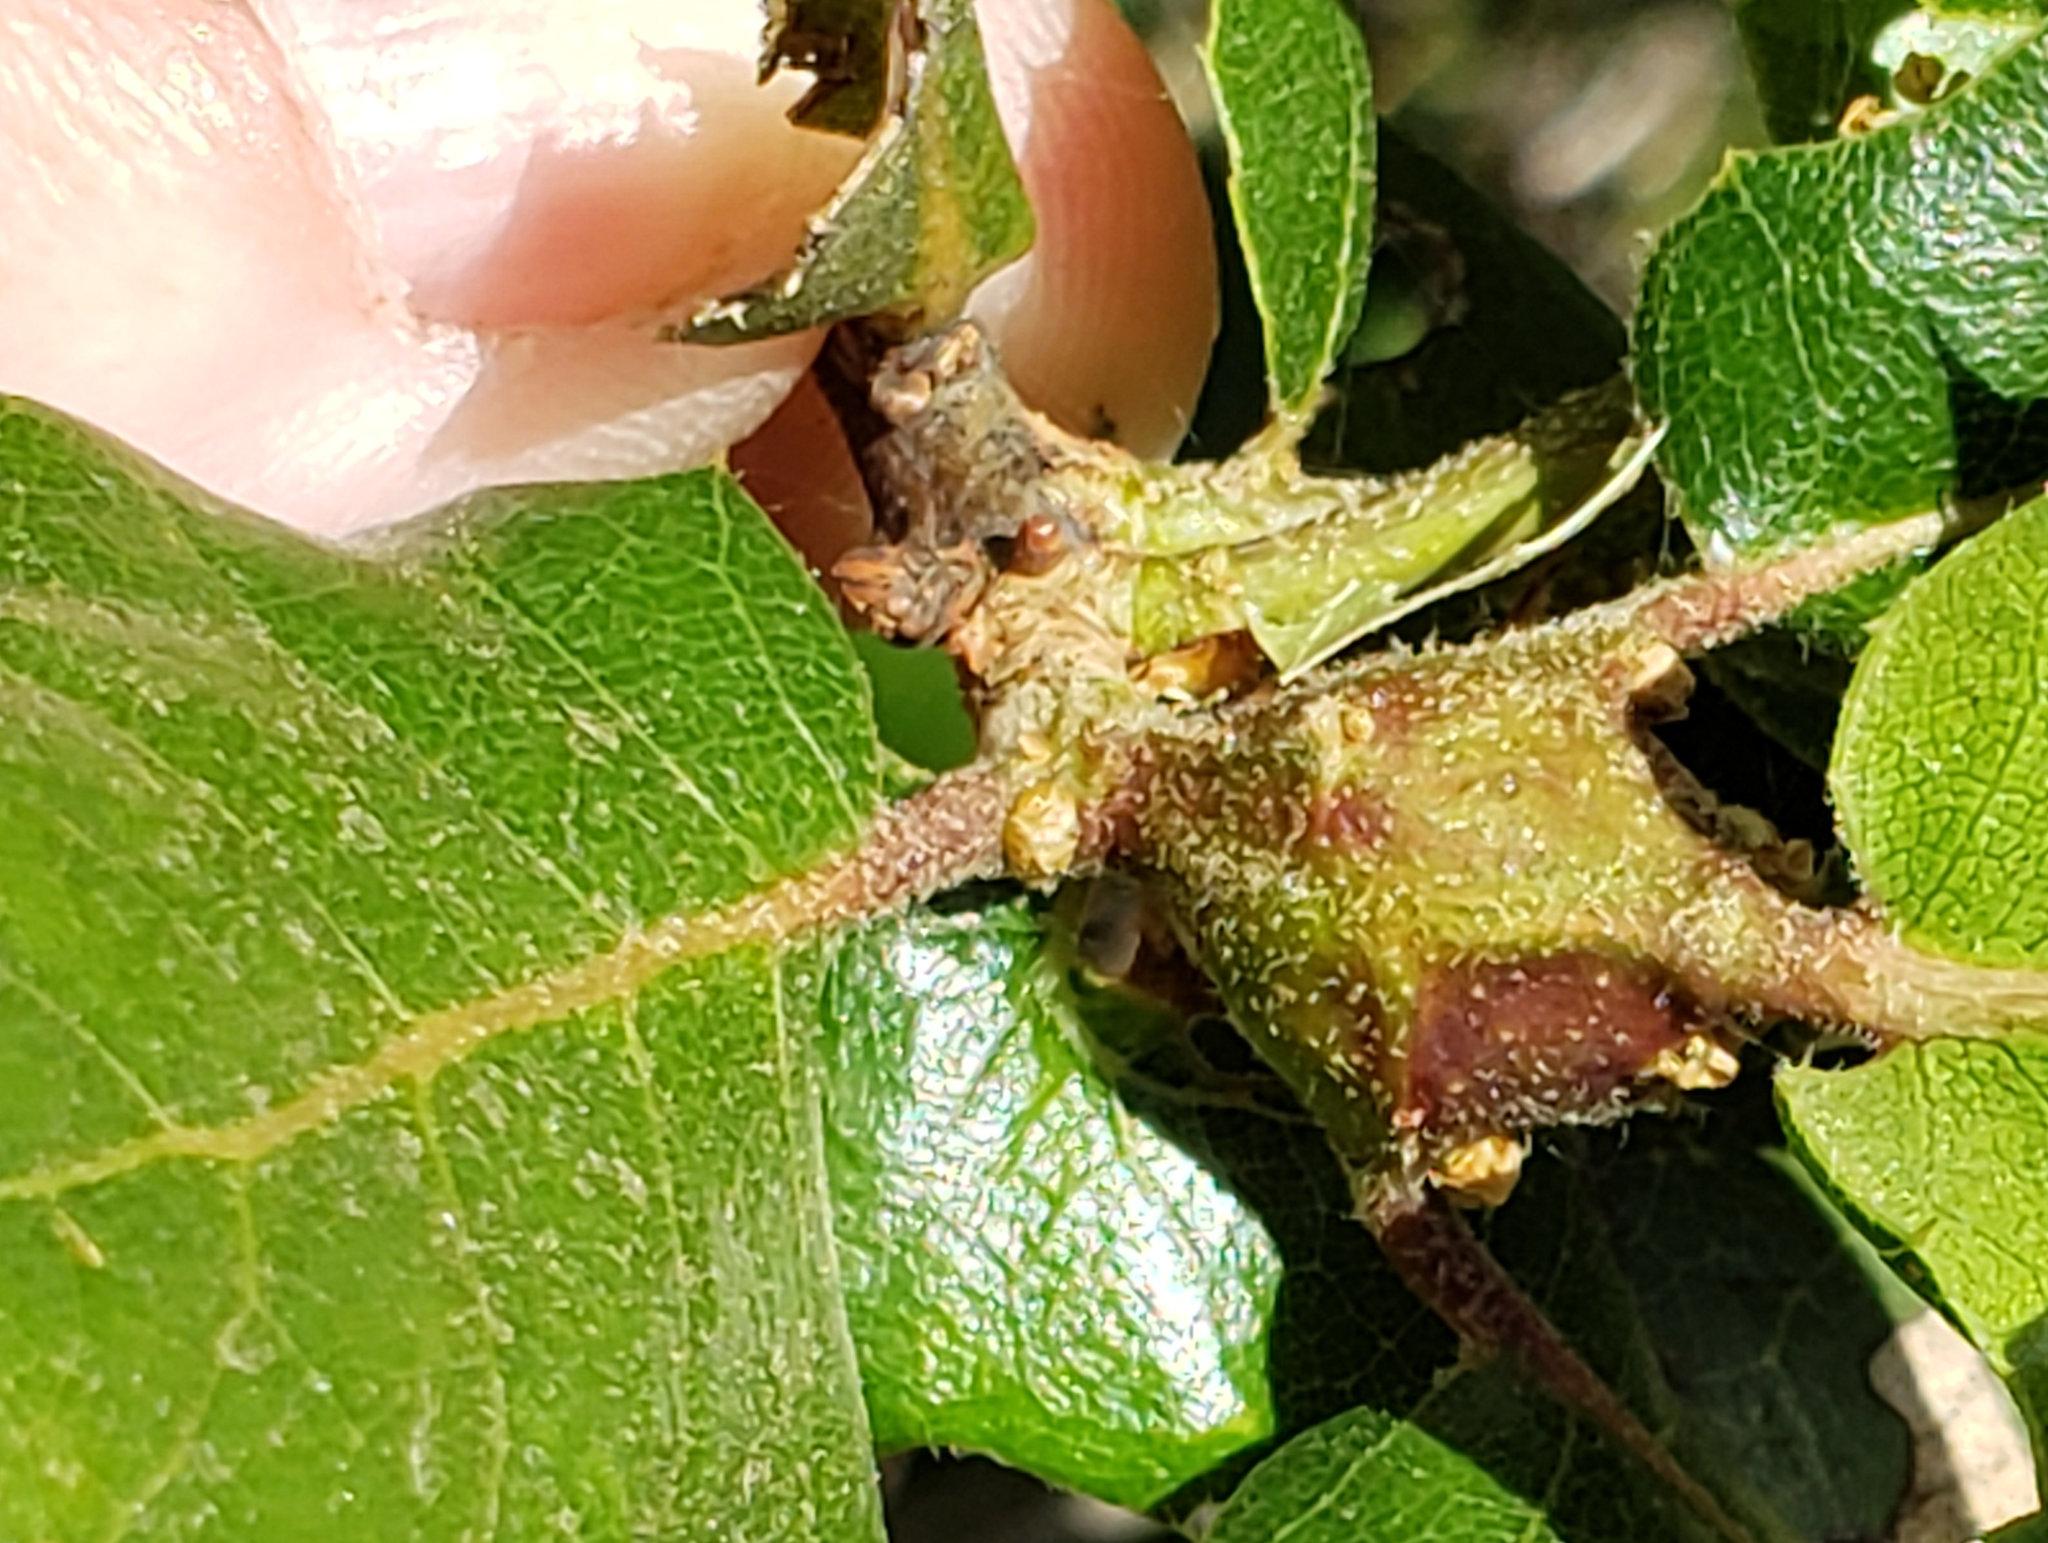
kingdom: Animalia
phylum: Arthropoda
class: Insecta
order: Hymenoptera
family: Cynipidae
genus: Melikaiella
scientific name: Melikaiella
